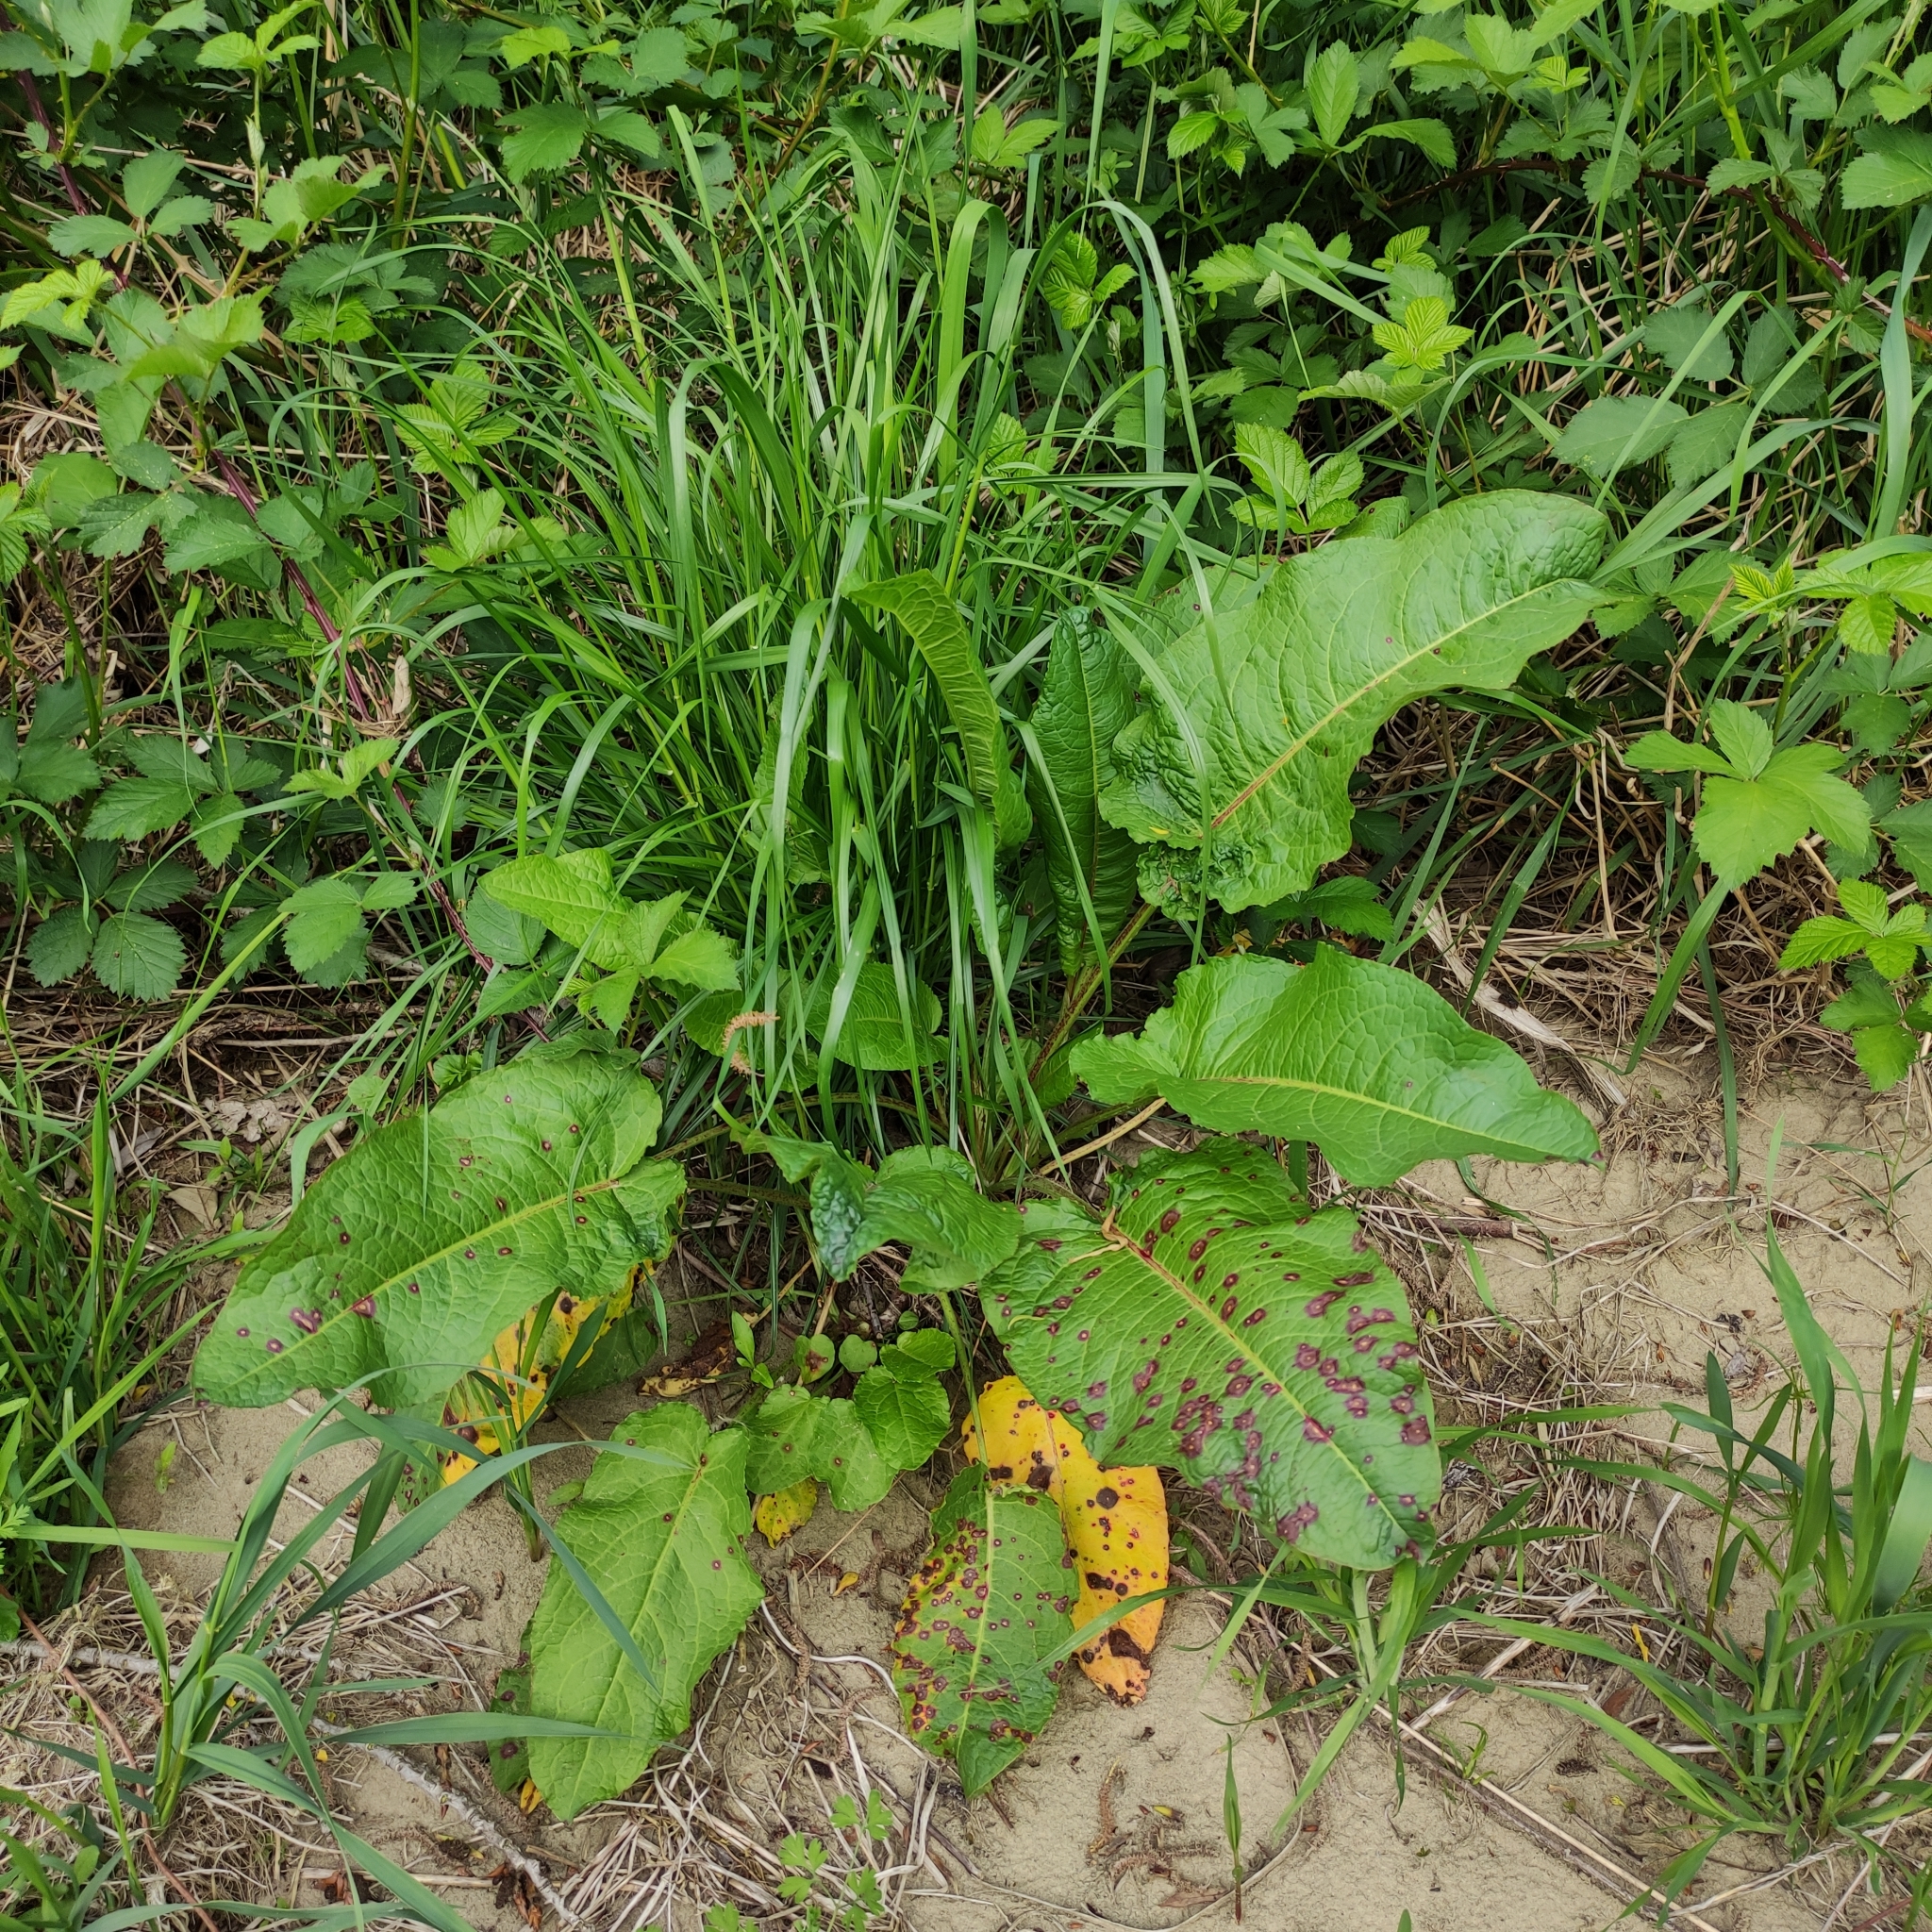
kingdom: Plantae
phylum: Tracheophyta
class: Magnoliopsida
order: Caryophyllales
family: Polygonaceae
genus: Rumex
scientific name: Rumex obtusifolius
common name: Bitter dock
